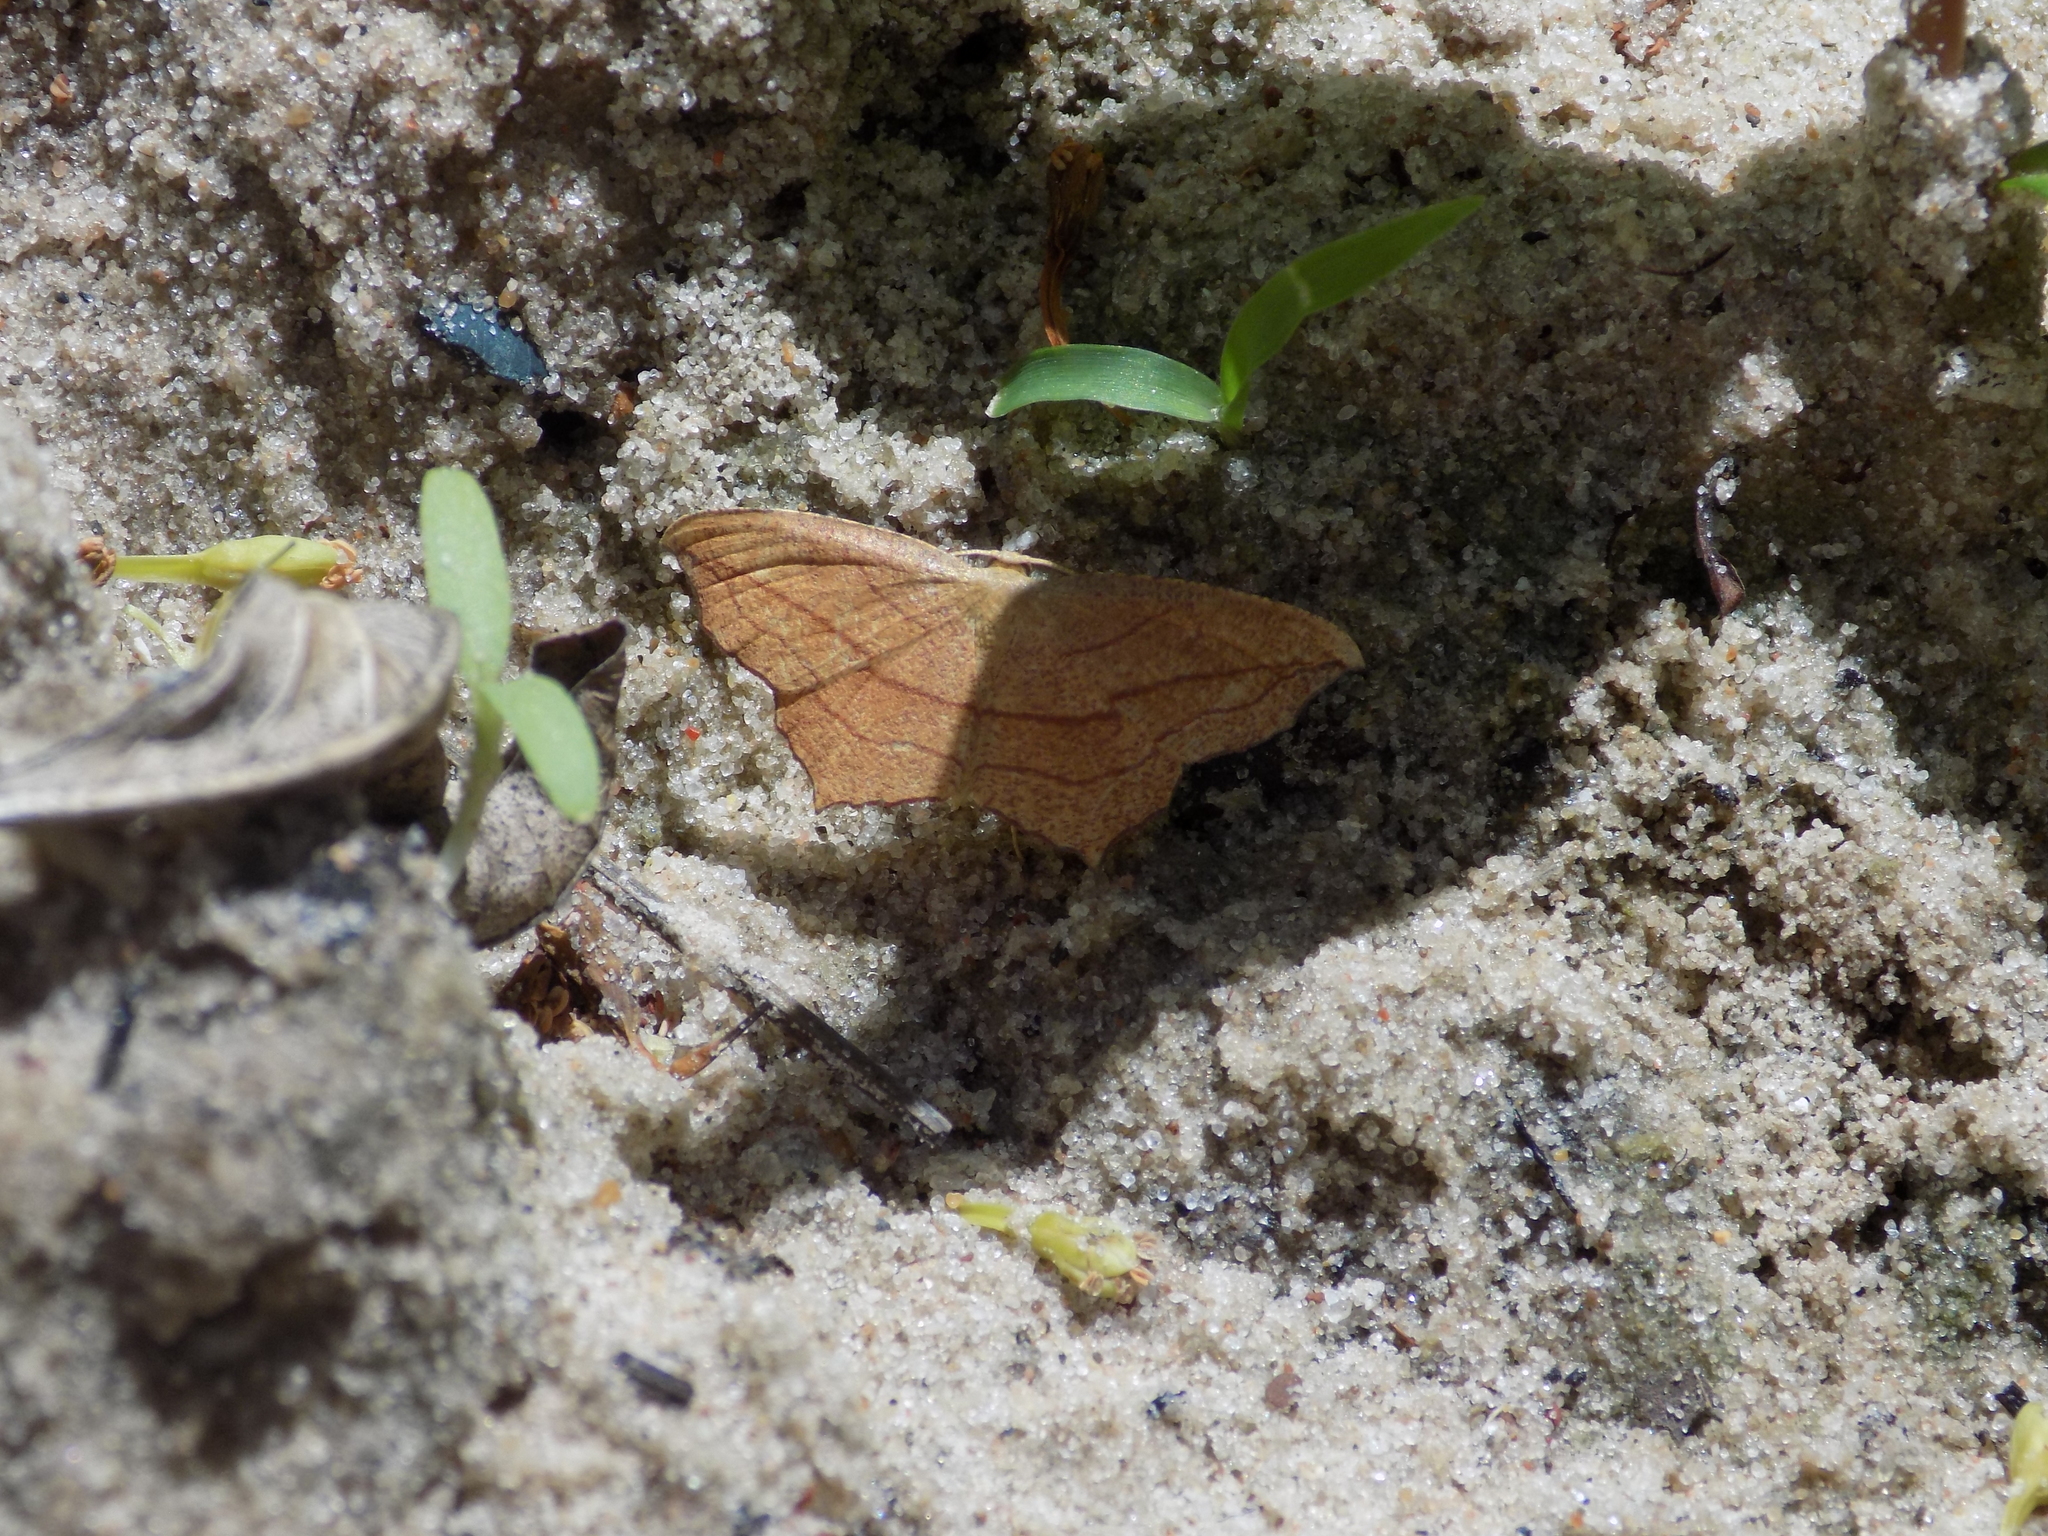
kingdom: Animalia
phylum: Arthropoda
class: Insecta
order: Lepidoptera
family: Geometridae
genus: Timandra
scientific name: Timandra amaturaria
